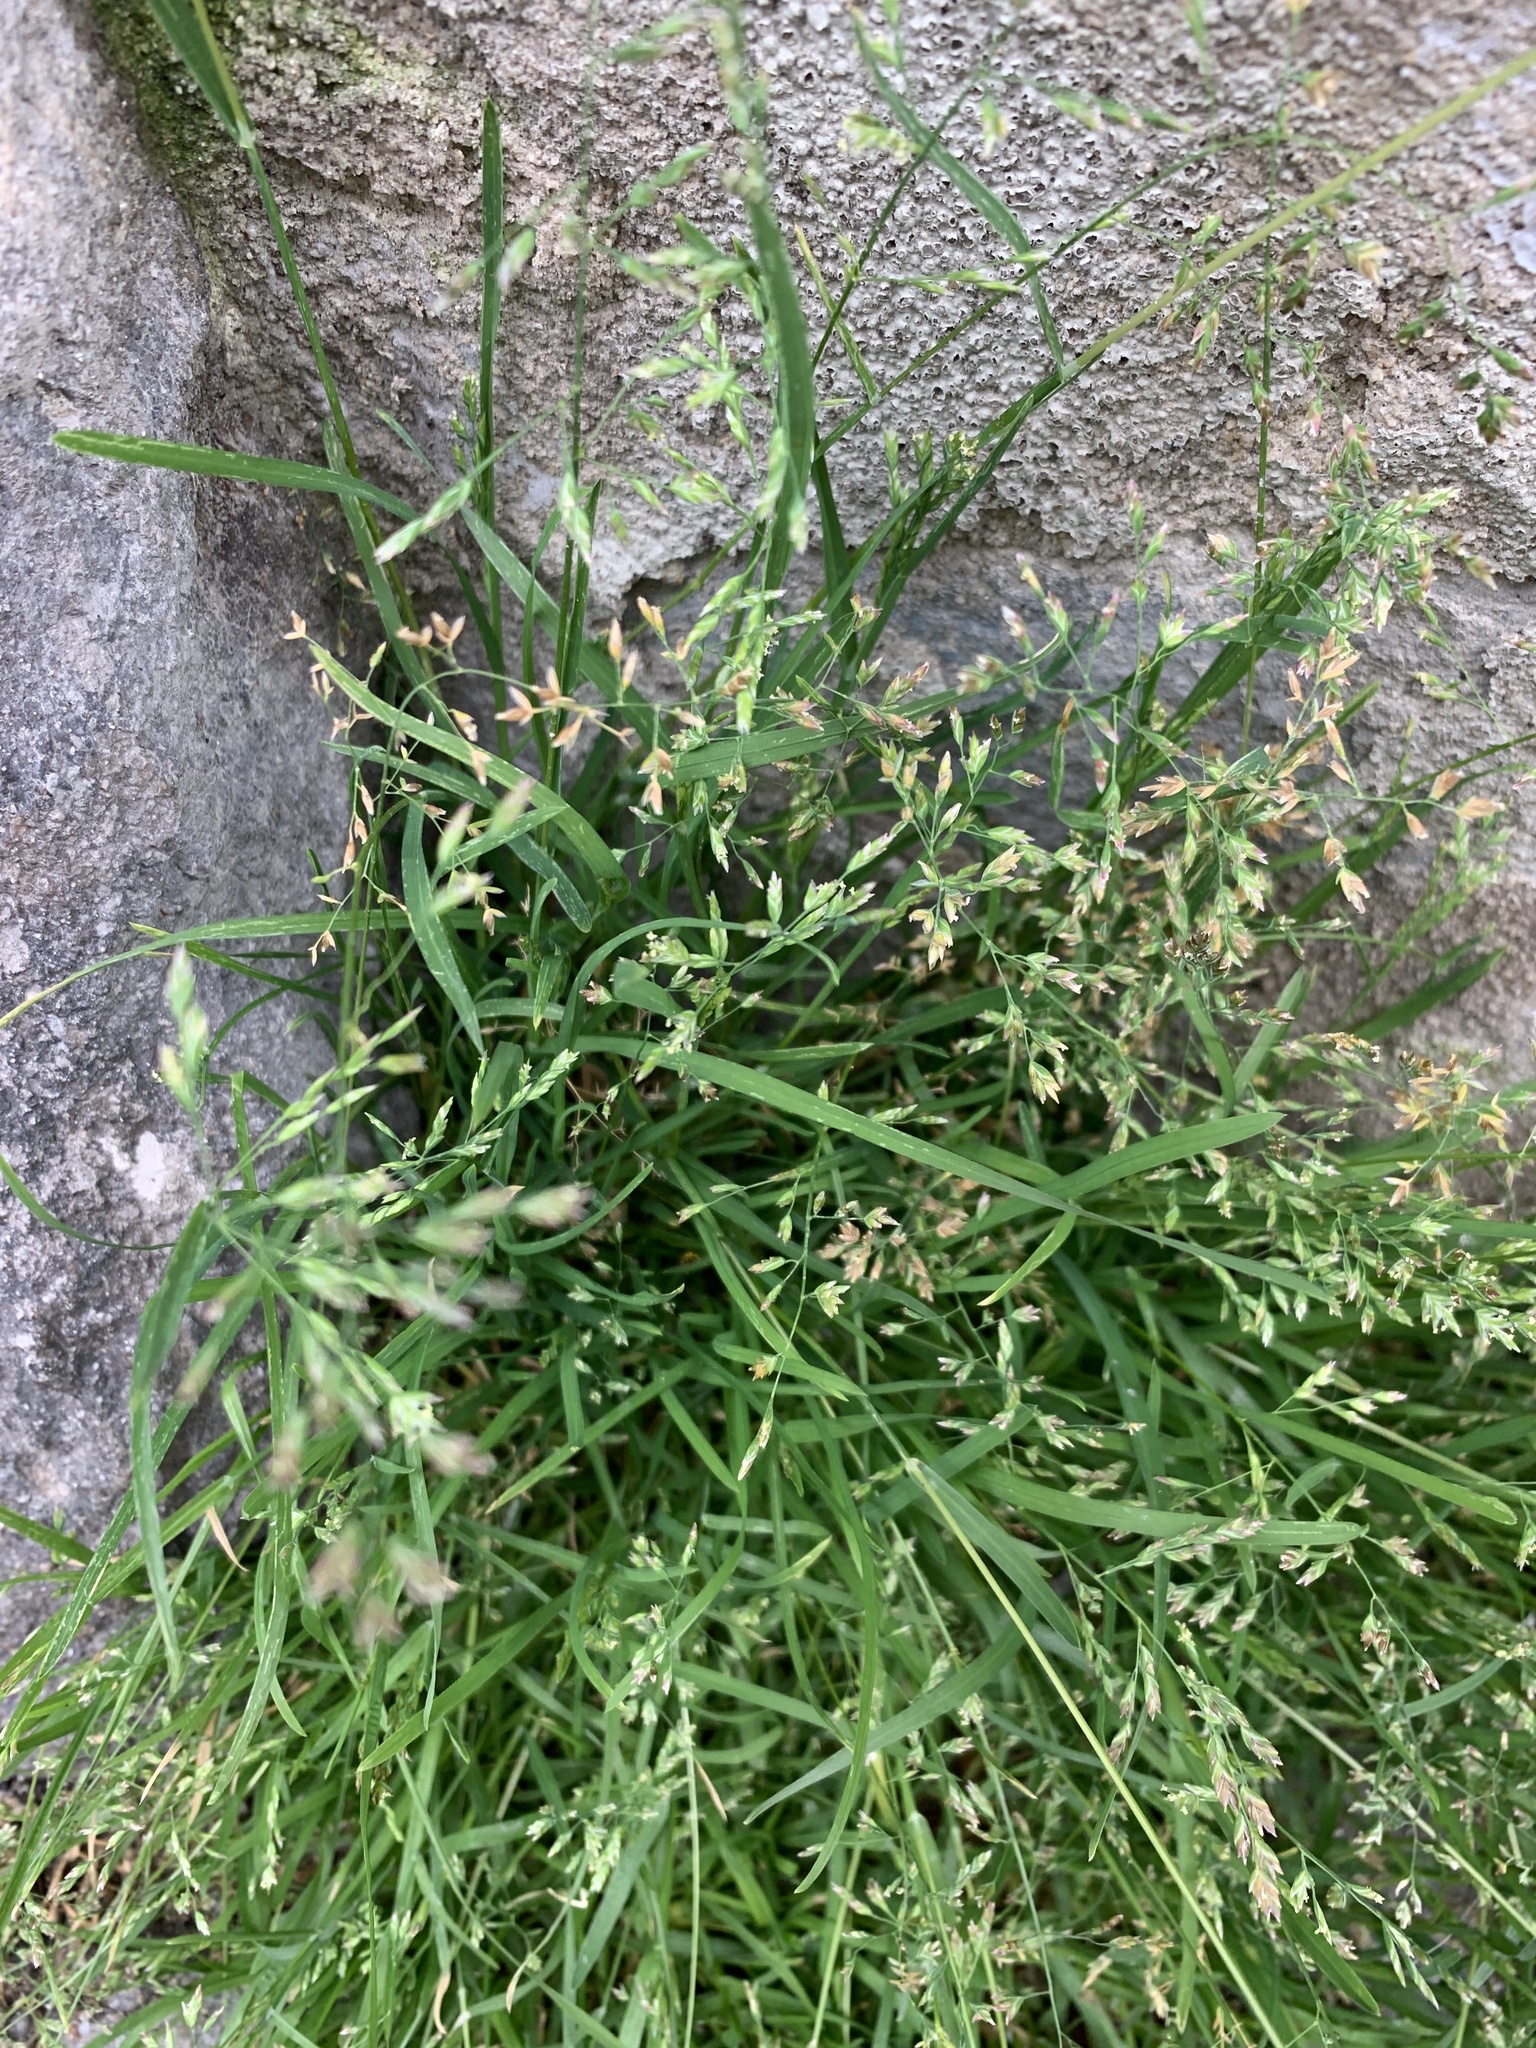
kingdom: Plantae
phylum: Tracheophyta
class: Liliopsida
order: Poales
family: Poaceae
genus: Poa
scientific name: Poa annua
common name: Annual bluegrass
